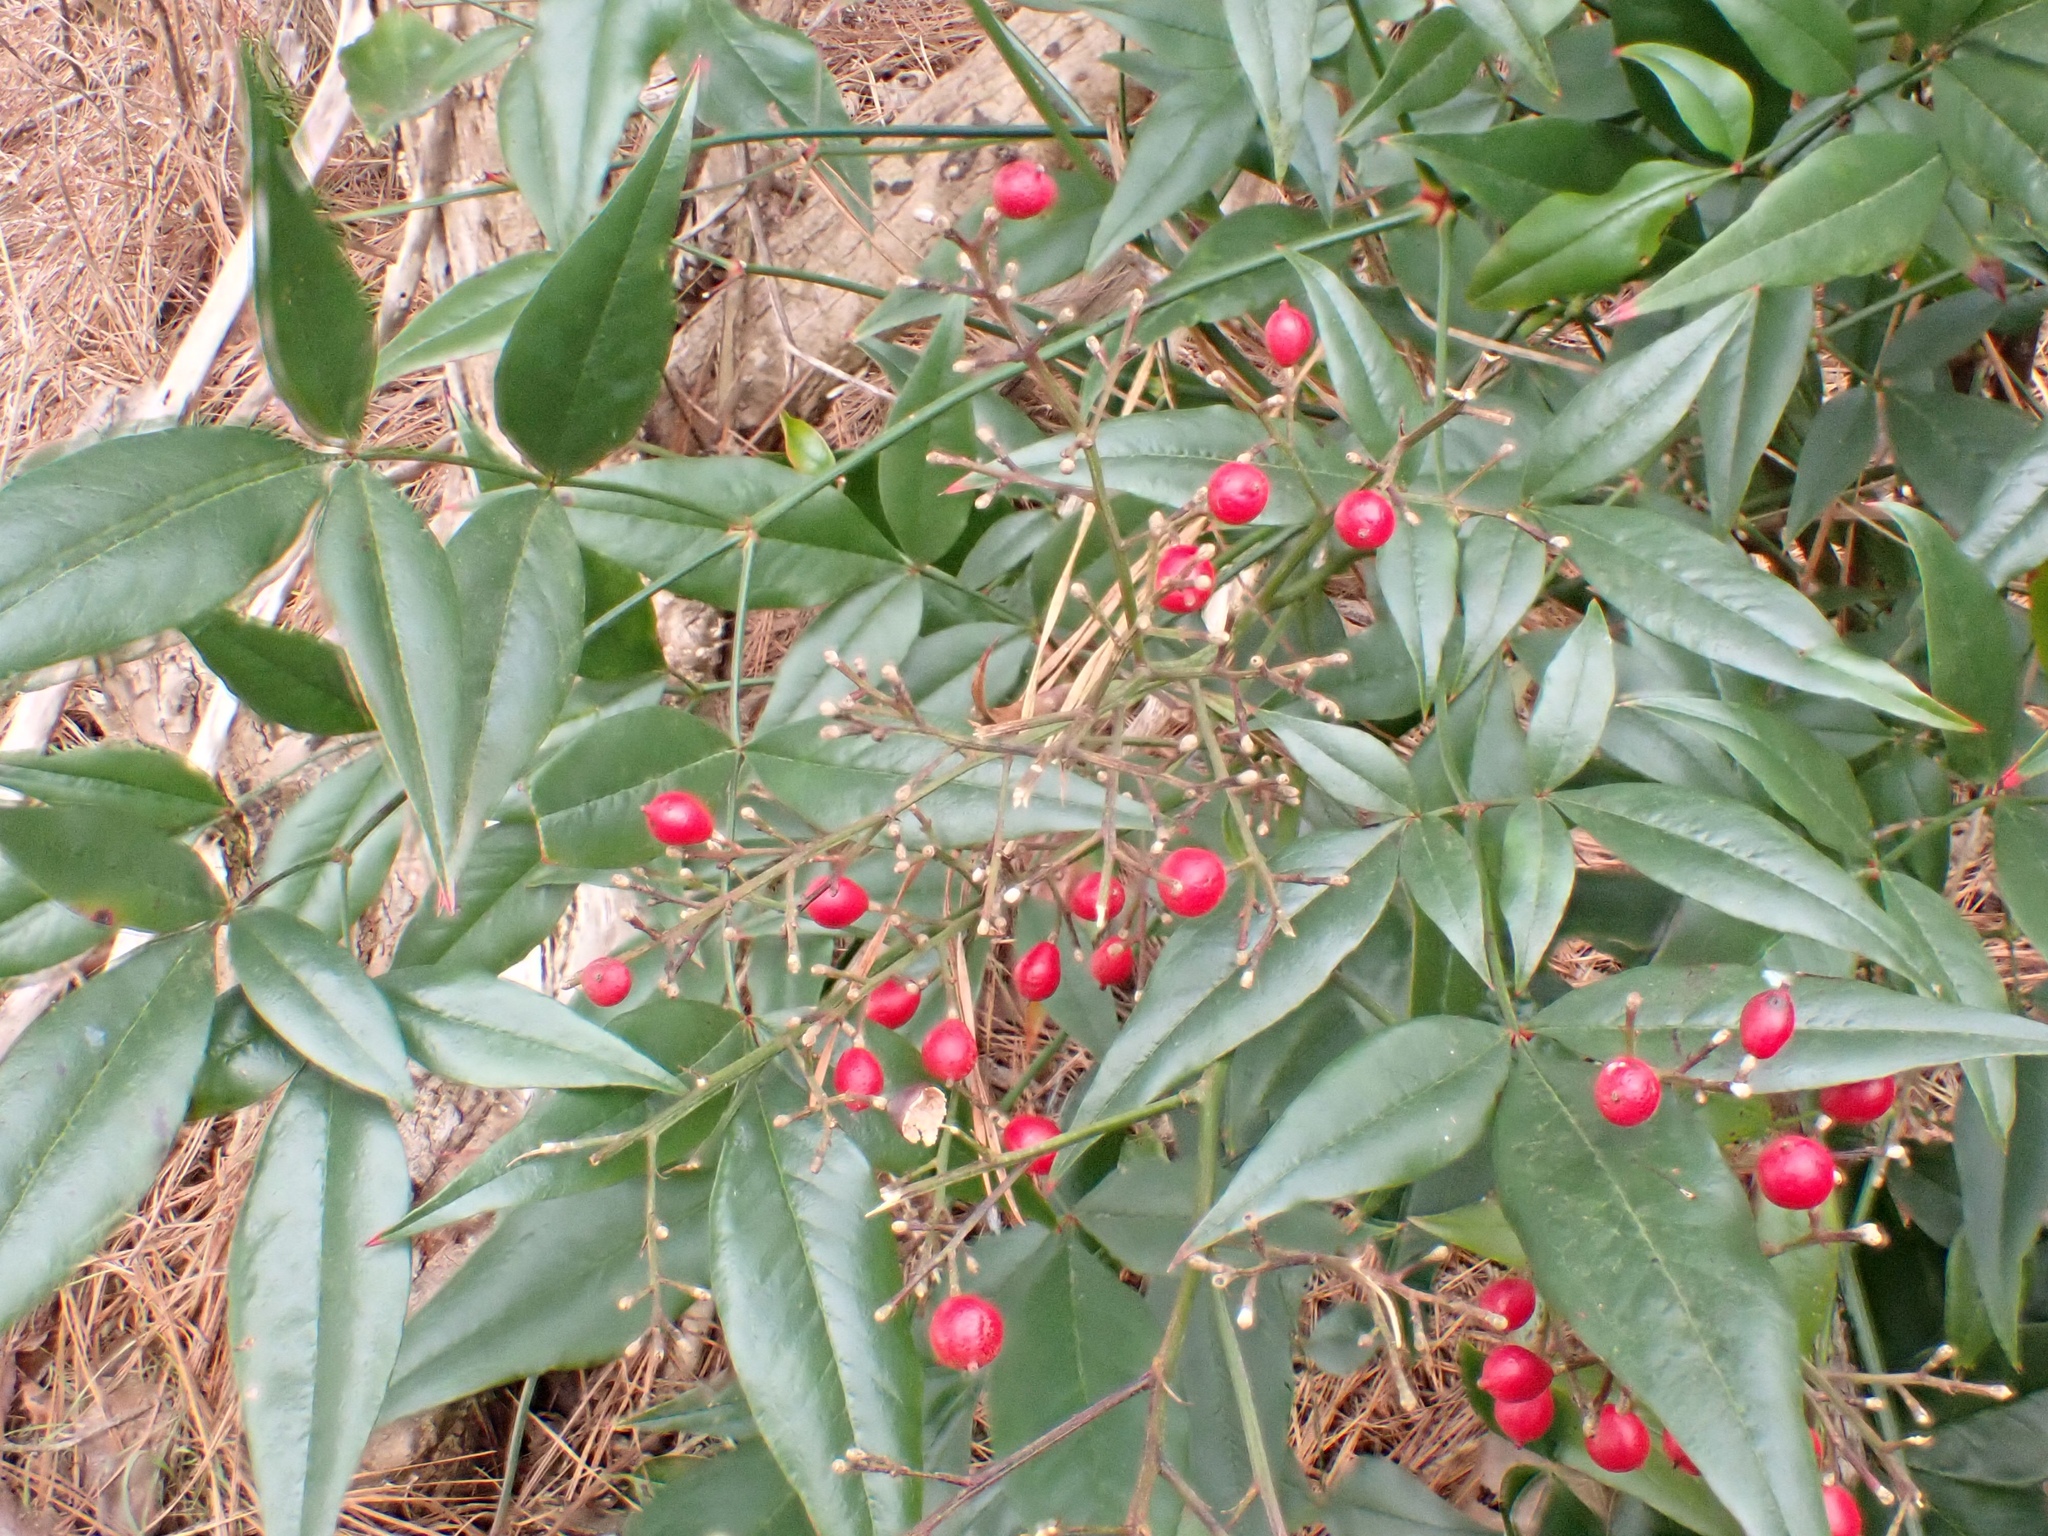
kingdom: Plantae
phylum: Tracheophyta
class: Magnoliopsida
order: Ranunculales
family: Berberidaceae
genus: Nandina
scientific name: Nandina domestica
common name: Sacred bamboo
